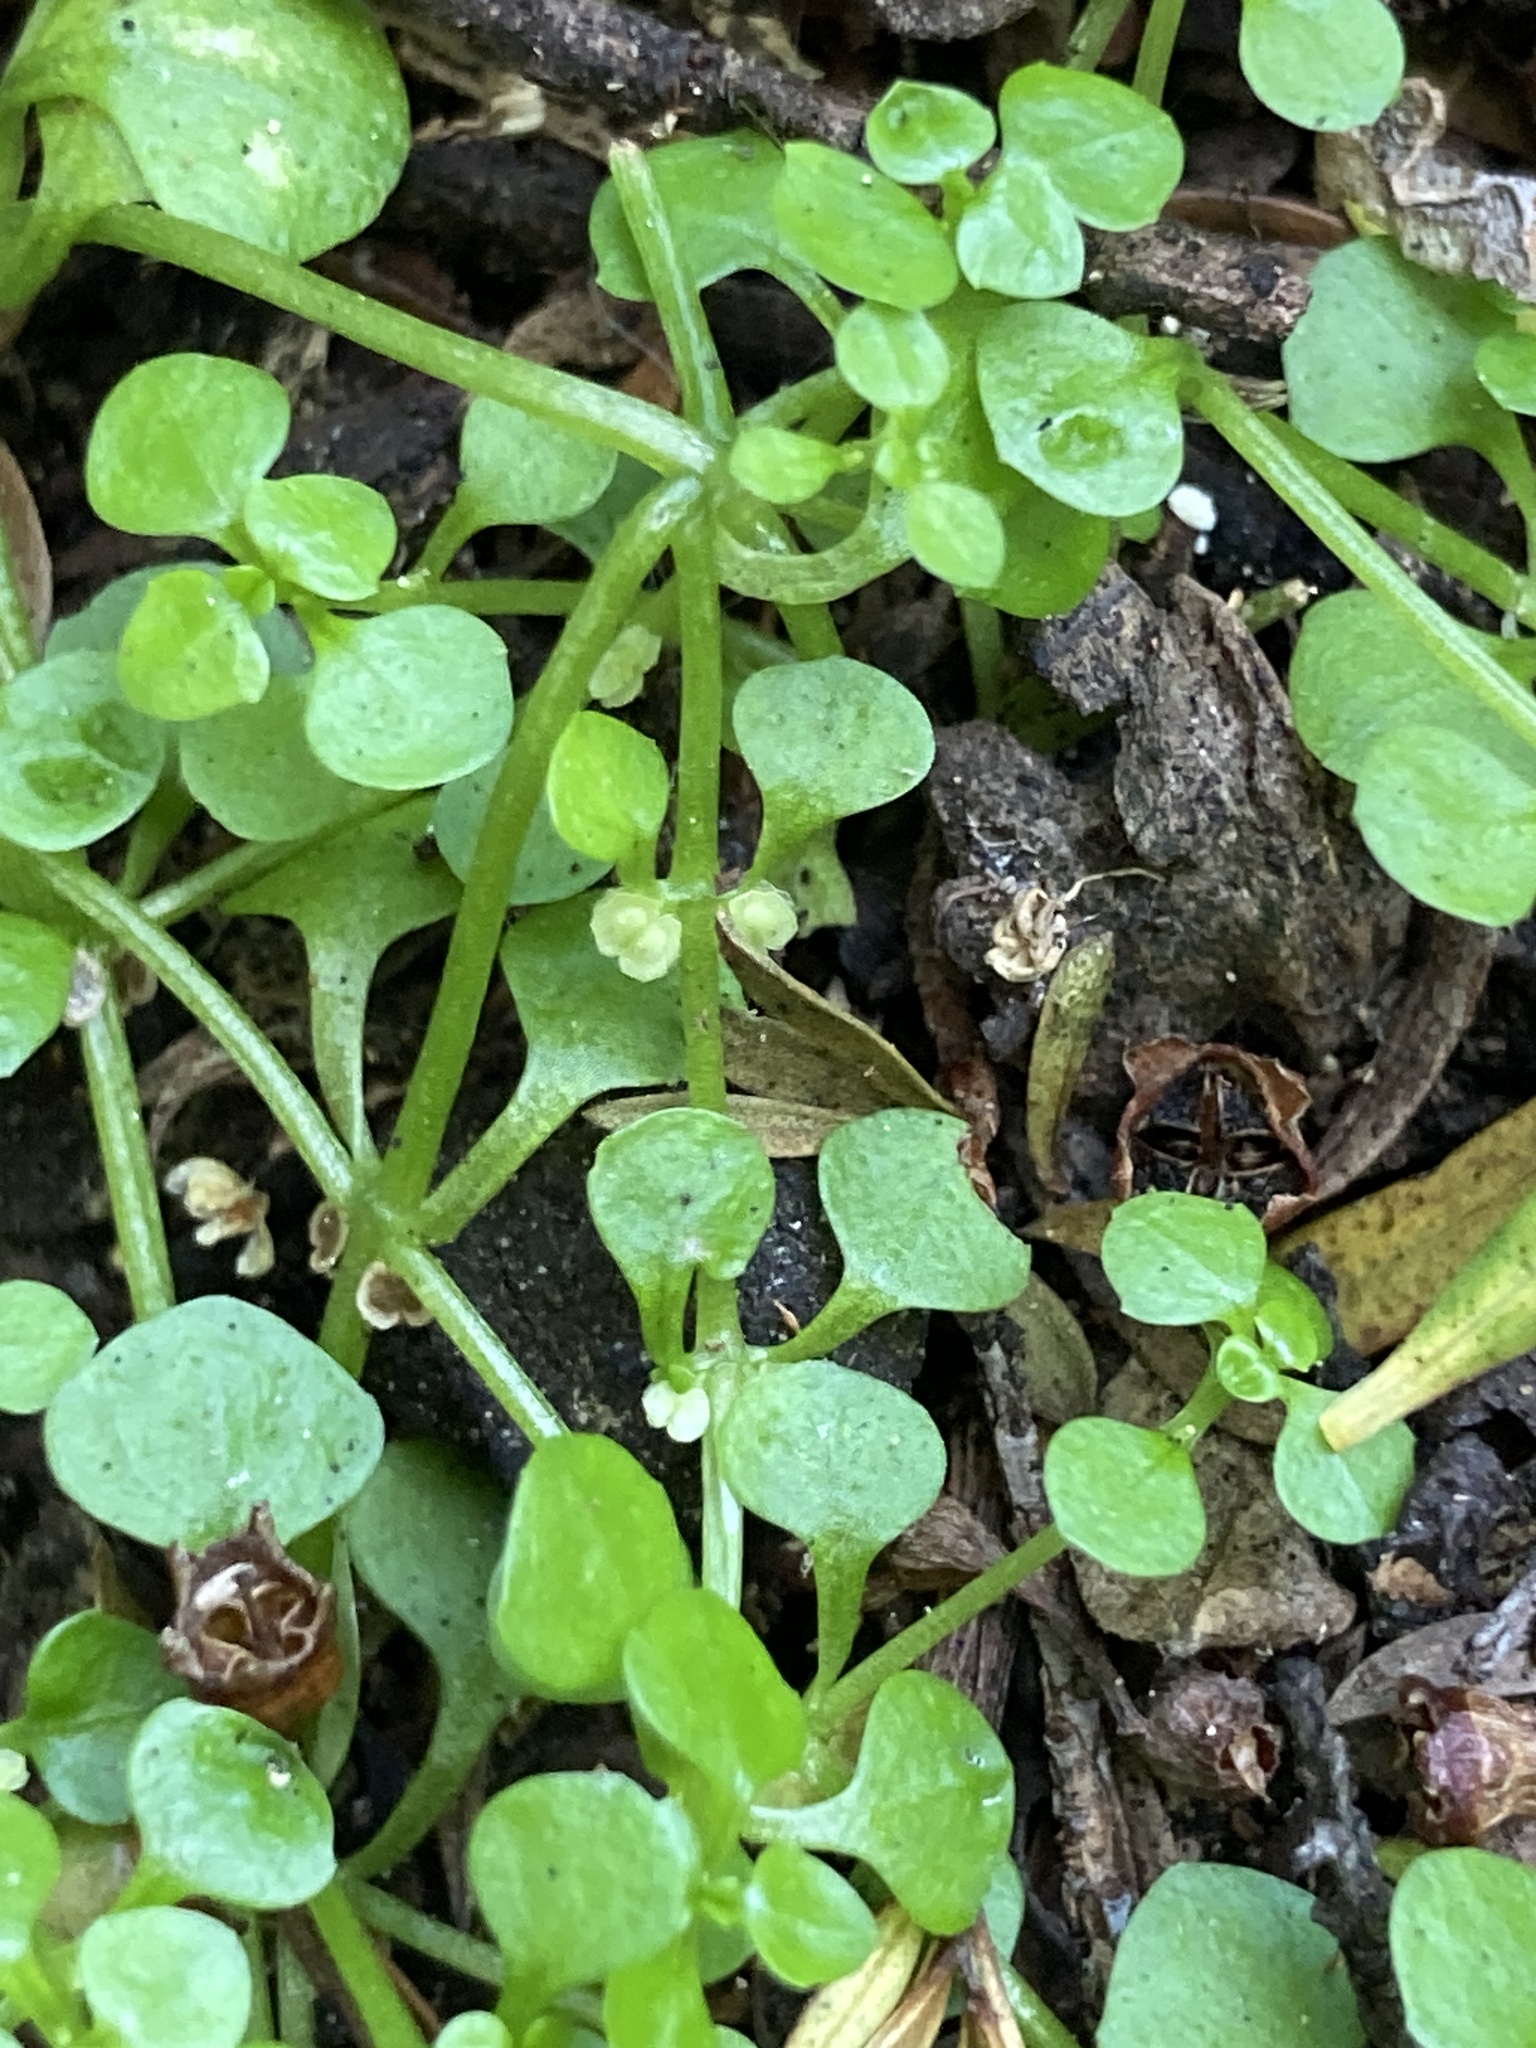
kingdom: Plantae
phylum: Tracheophyta
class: Magnoliopsida
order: Lamiales
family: Plantaginaceae
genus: Callitriche
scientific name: Callitriche muelleri
